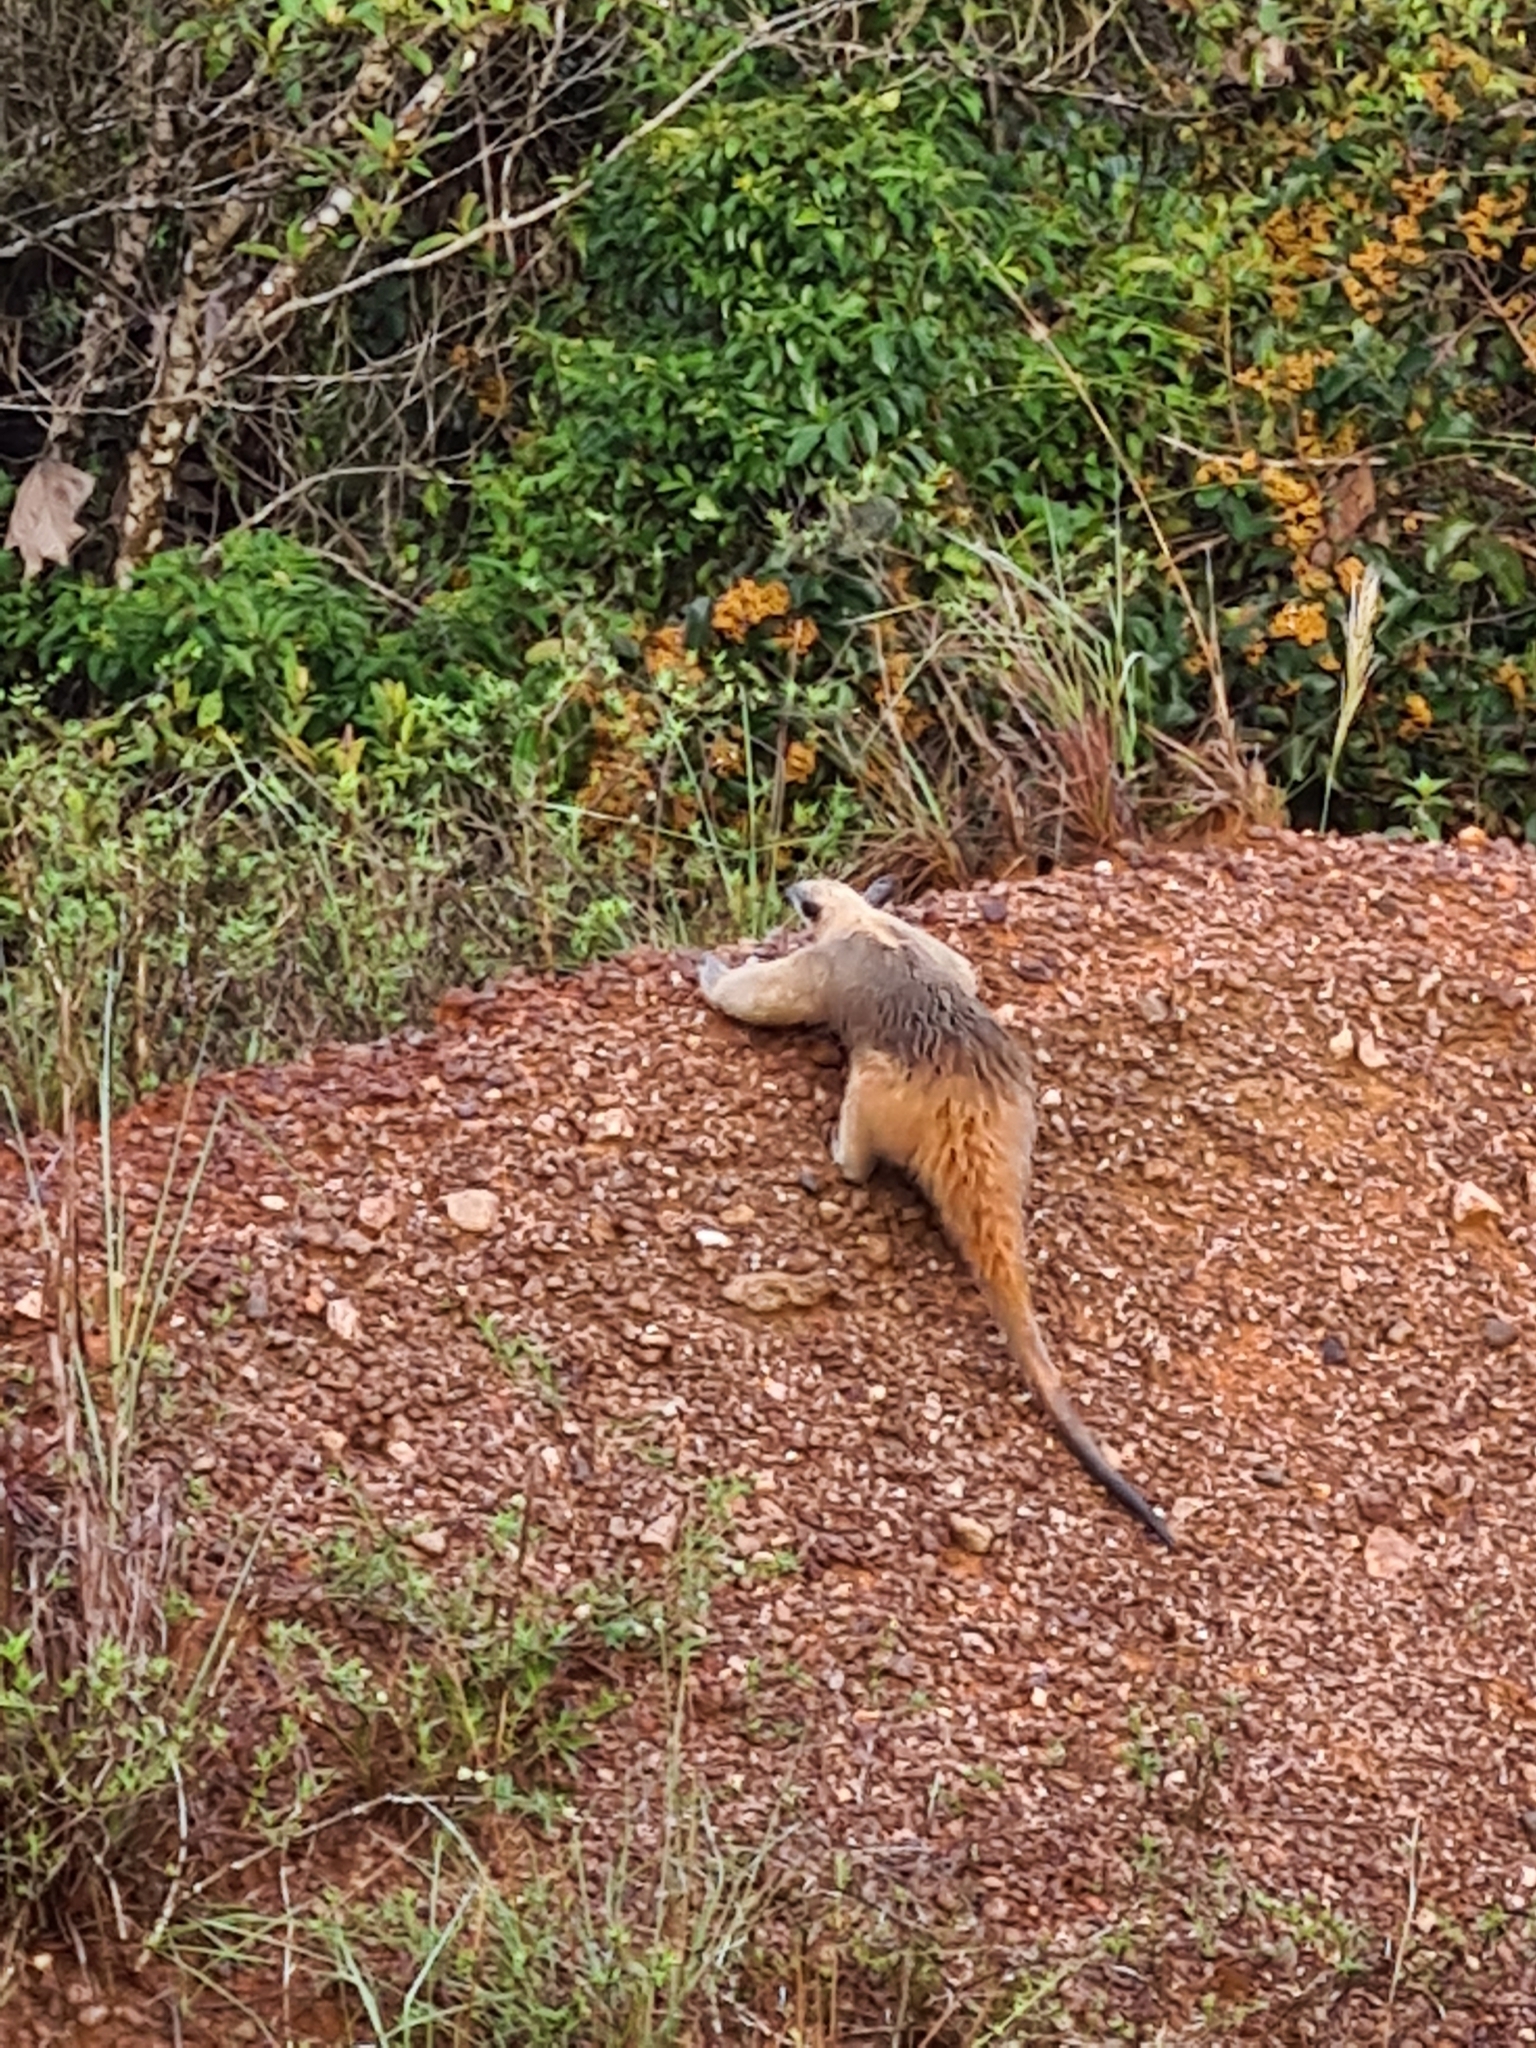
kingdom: Animalia
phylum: Chordata
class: Mammalia
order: Pilosa
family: Myrmecophagidae
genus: Tamandua
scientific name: Tamandua tetradactyla
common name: Southern tamandua
